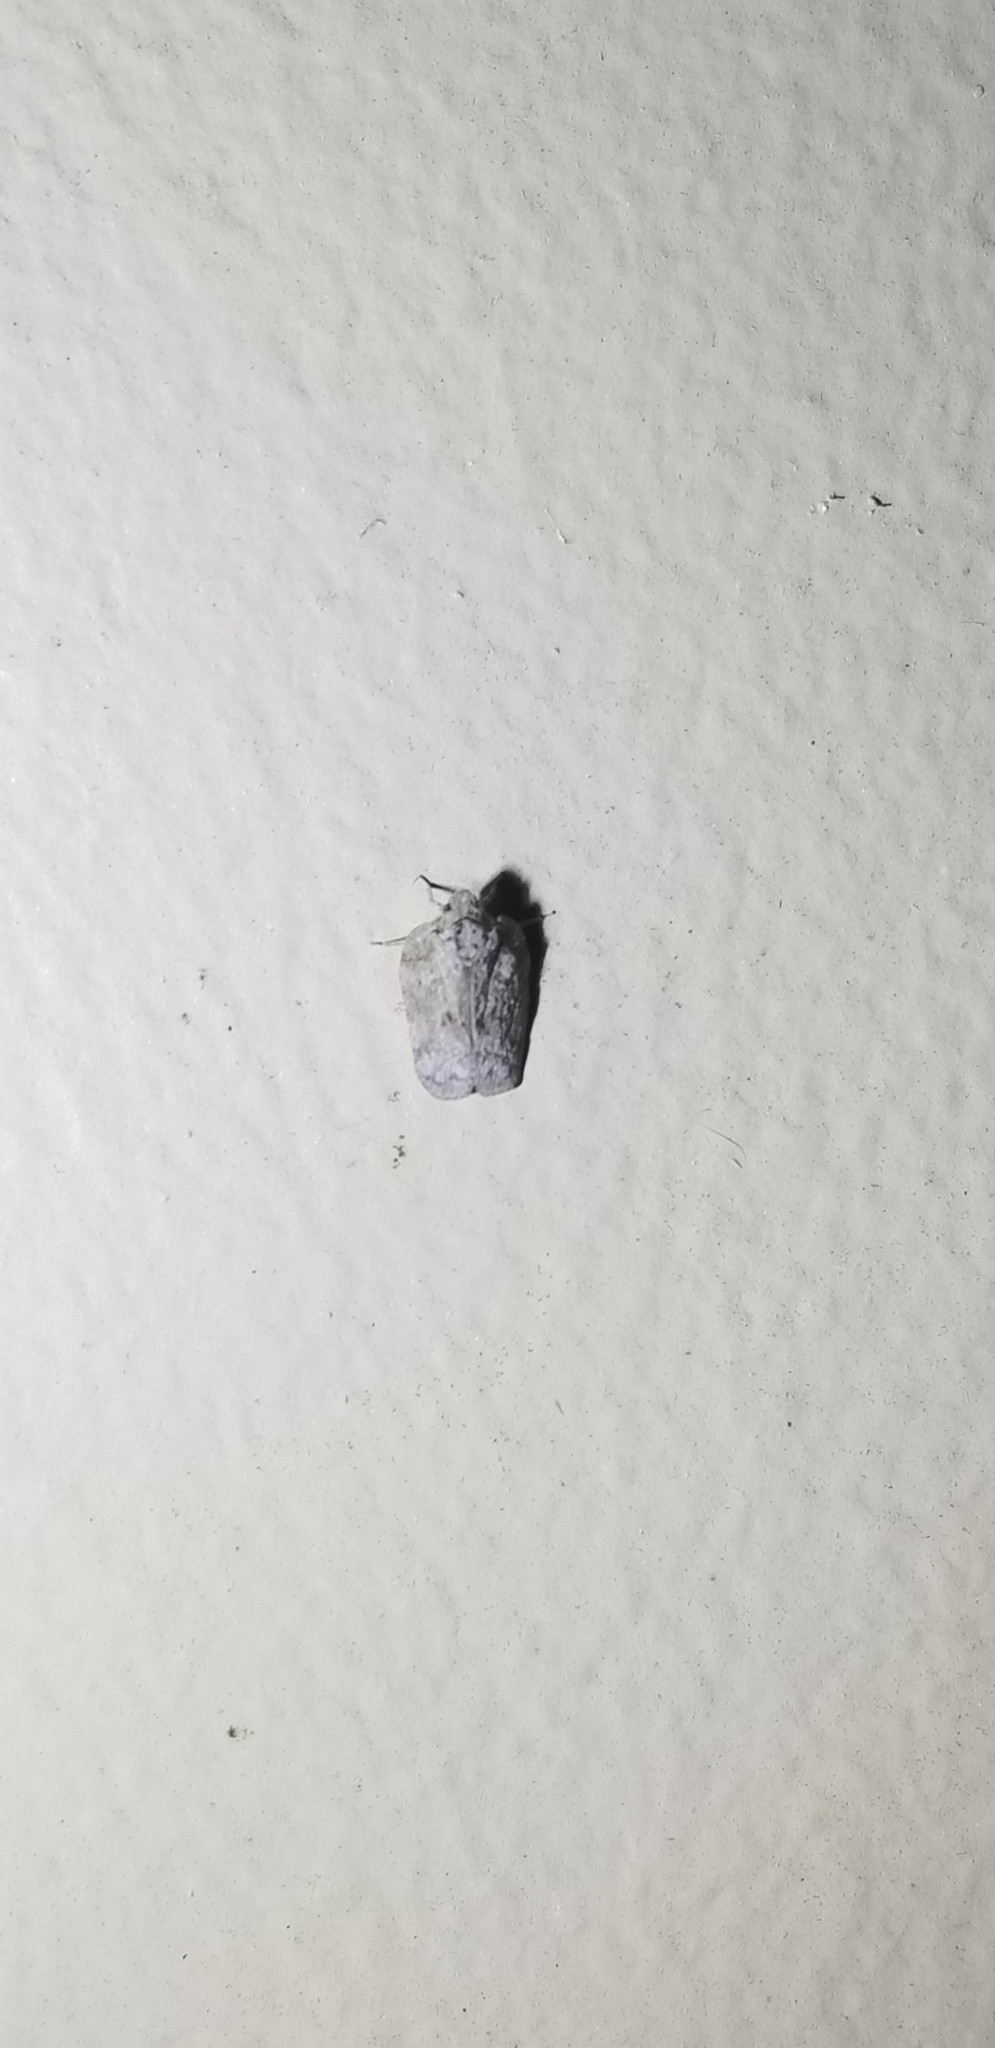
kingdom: Animalia
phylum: Arthropoda
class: Insecta
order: Hemiptera
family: Flatidae
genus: Flatoidinus
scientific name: Flatoidinus punctatus
